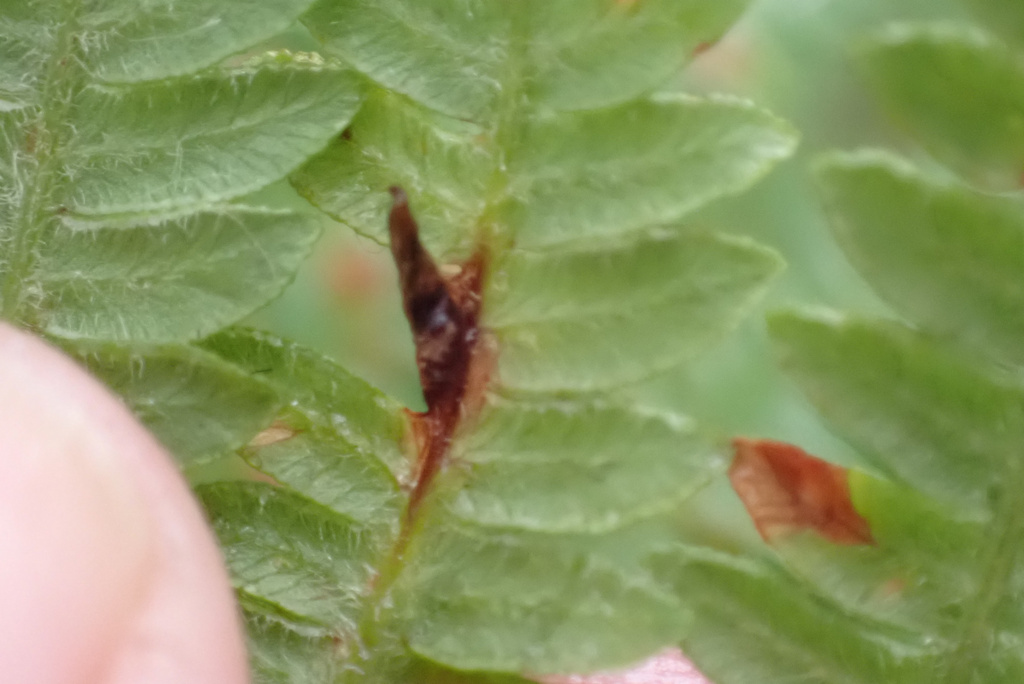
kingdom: Animalia
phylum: Arthropoda
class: Insecta
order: Diptera
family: Cecidomyiidae
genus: Dasineura
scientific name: Dasineura pteridis
